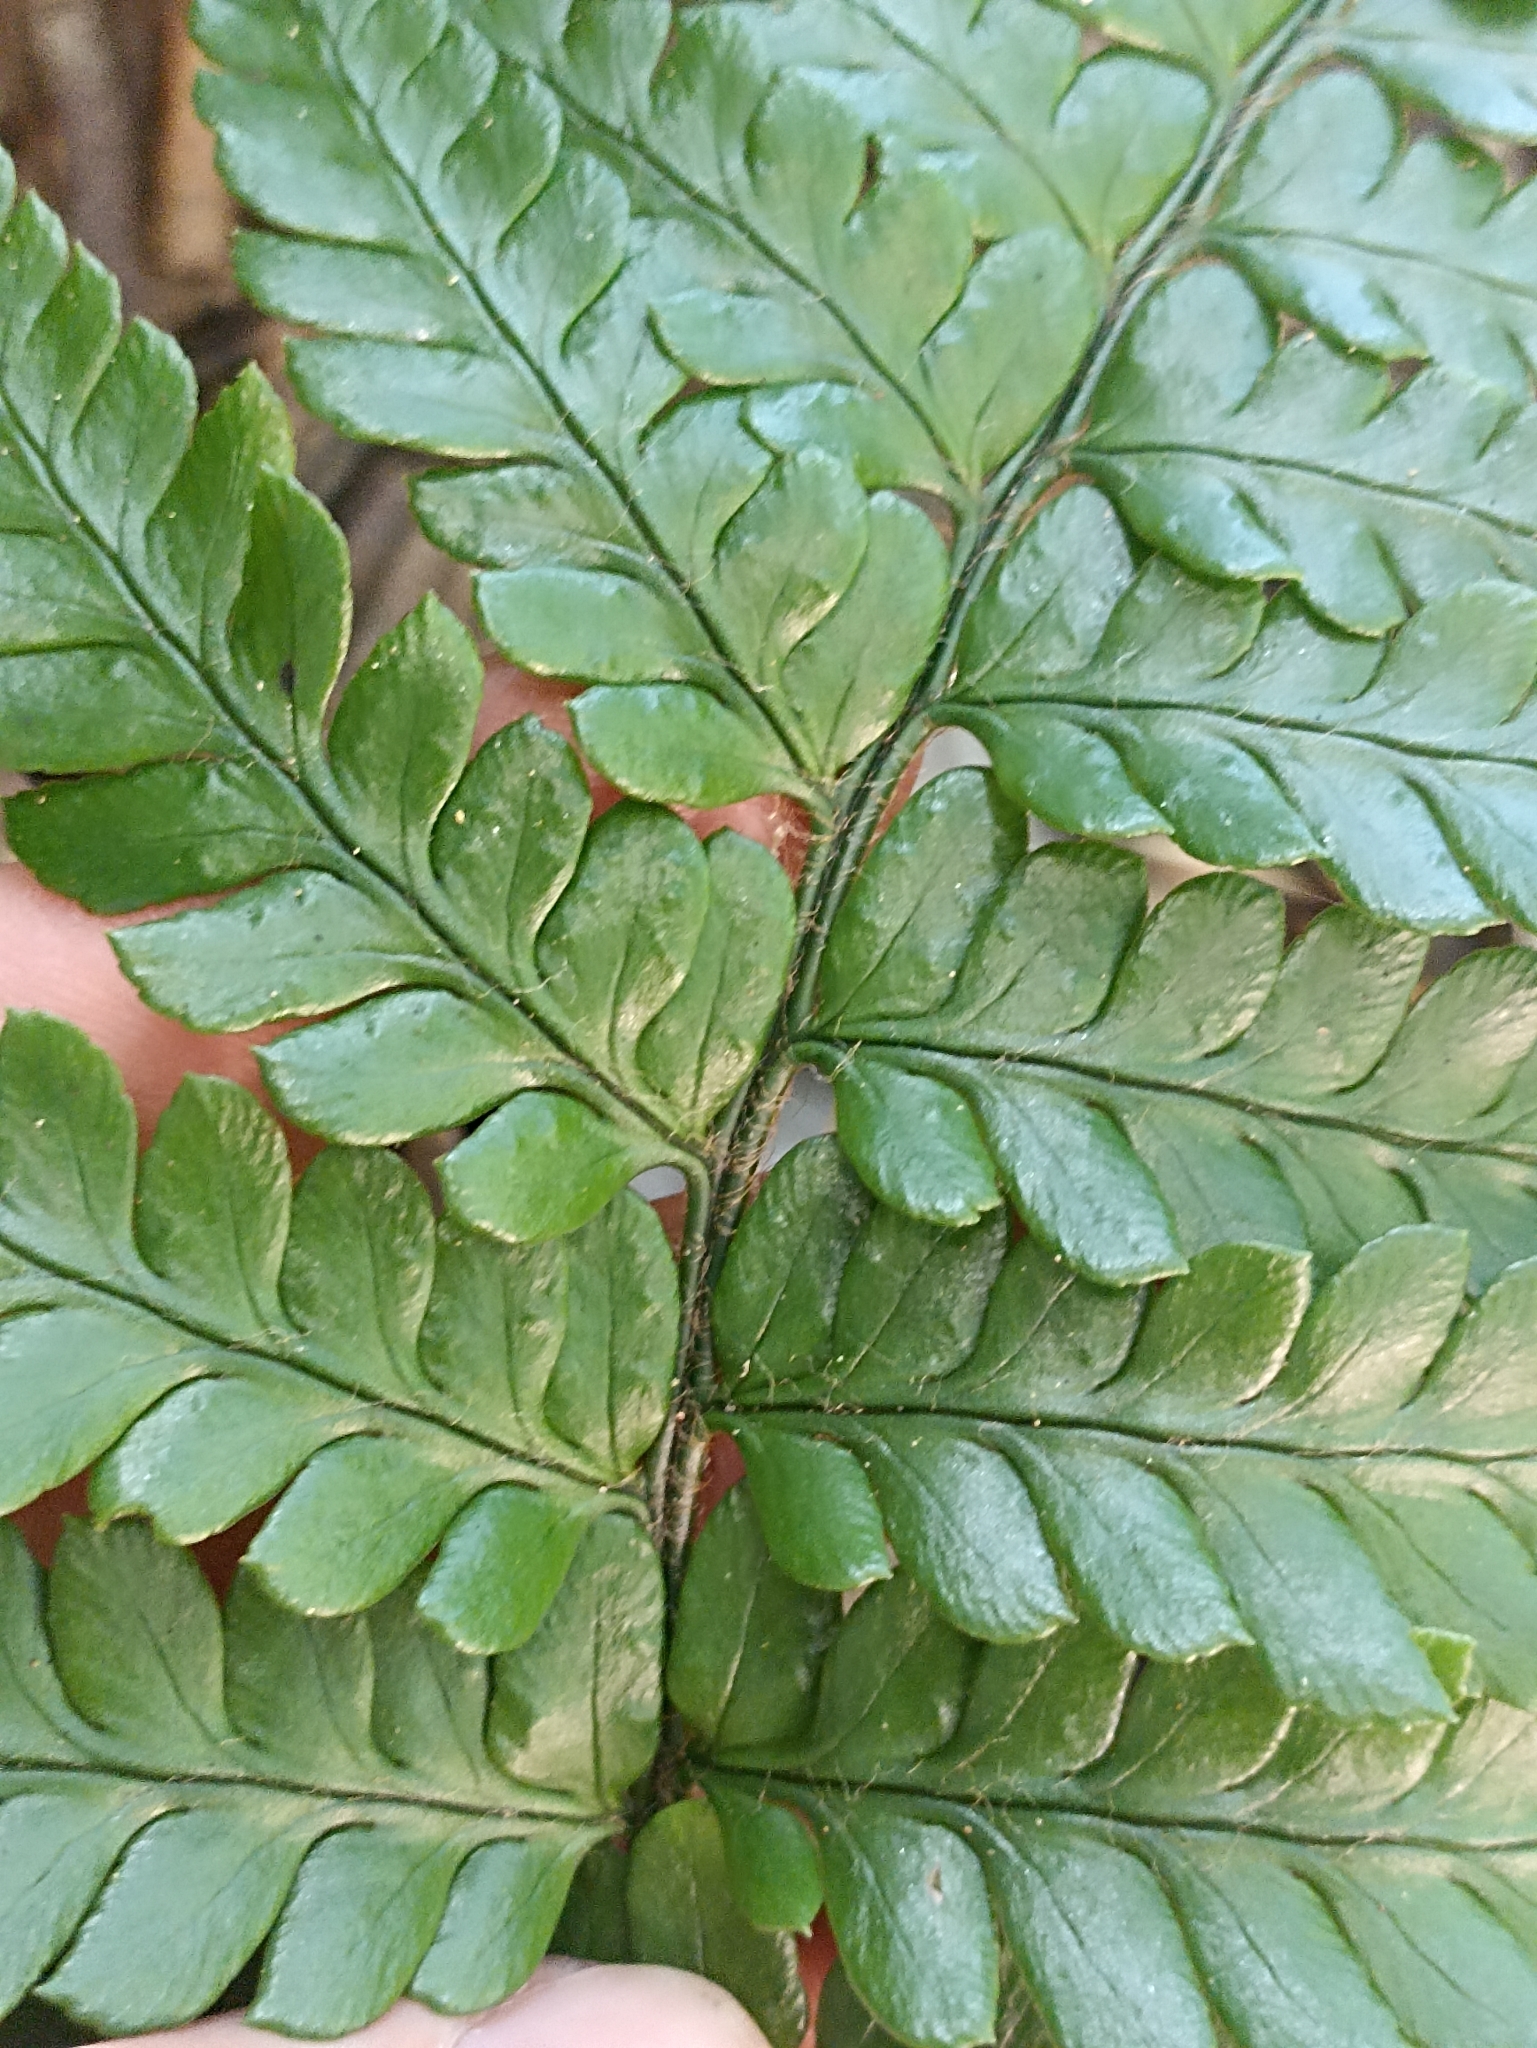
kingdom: Plantae
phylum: Tracheophyta
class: Polypodiopsida
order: Polypodiales
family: Dryopteridaceae
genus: Polystichum
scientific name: Polystichum wawranum
